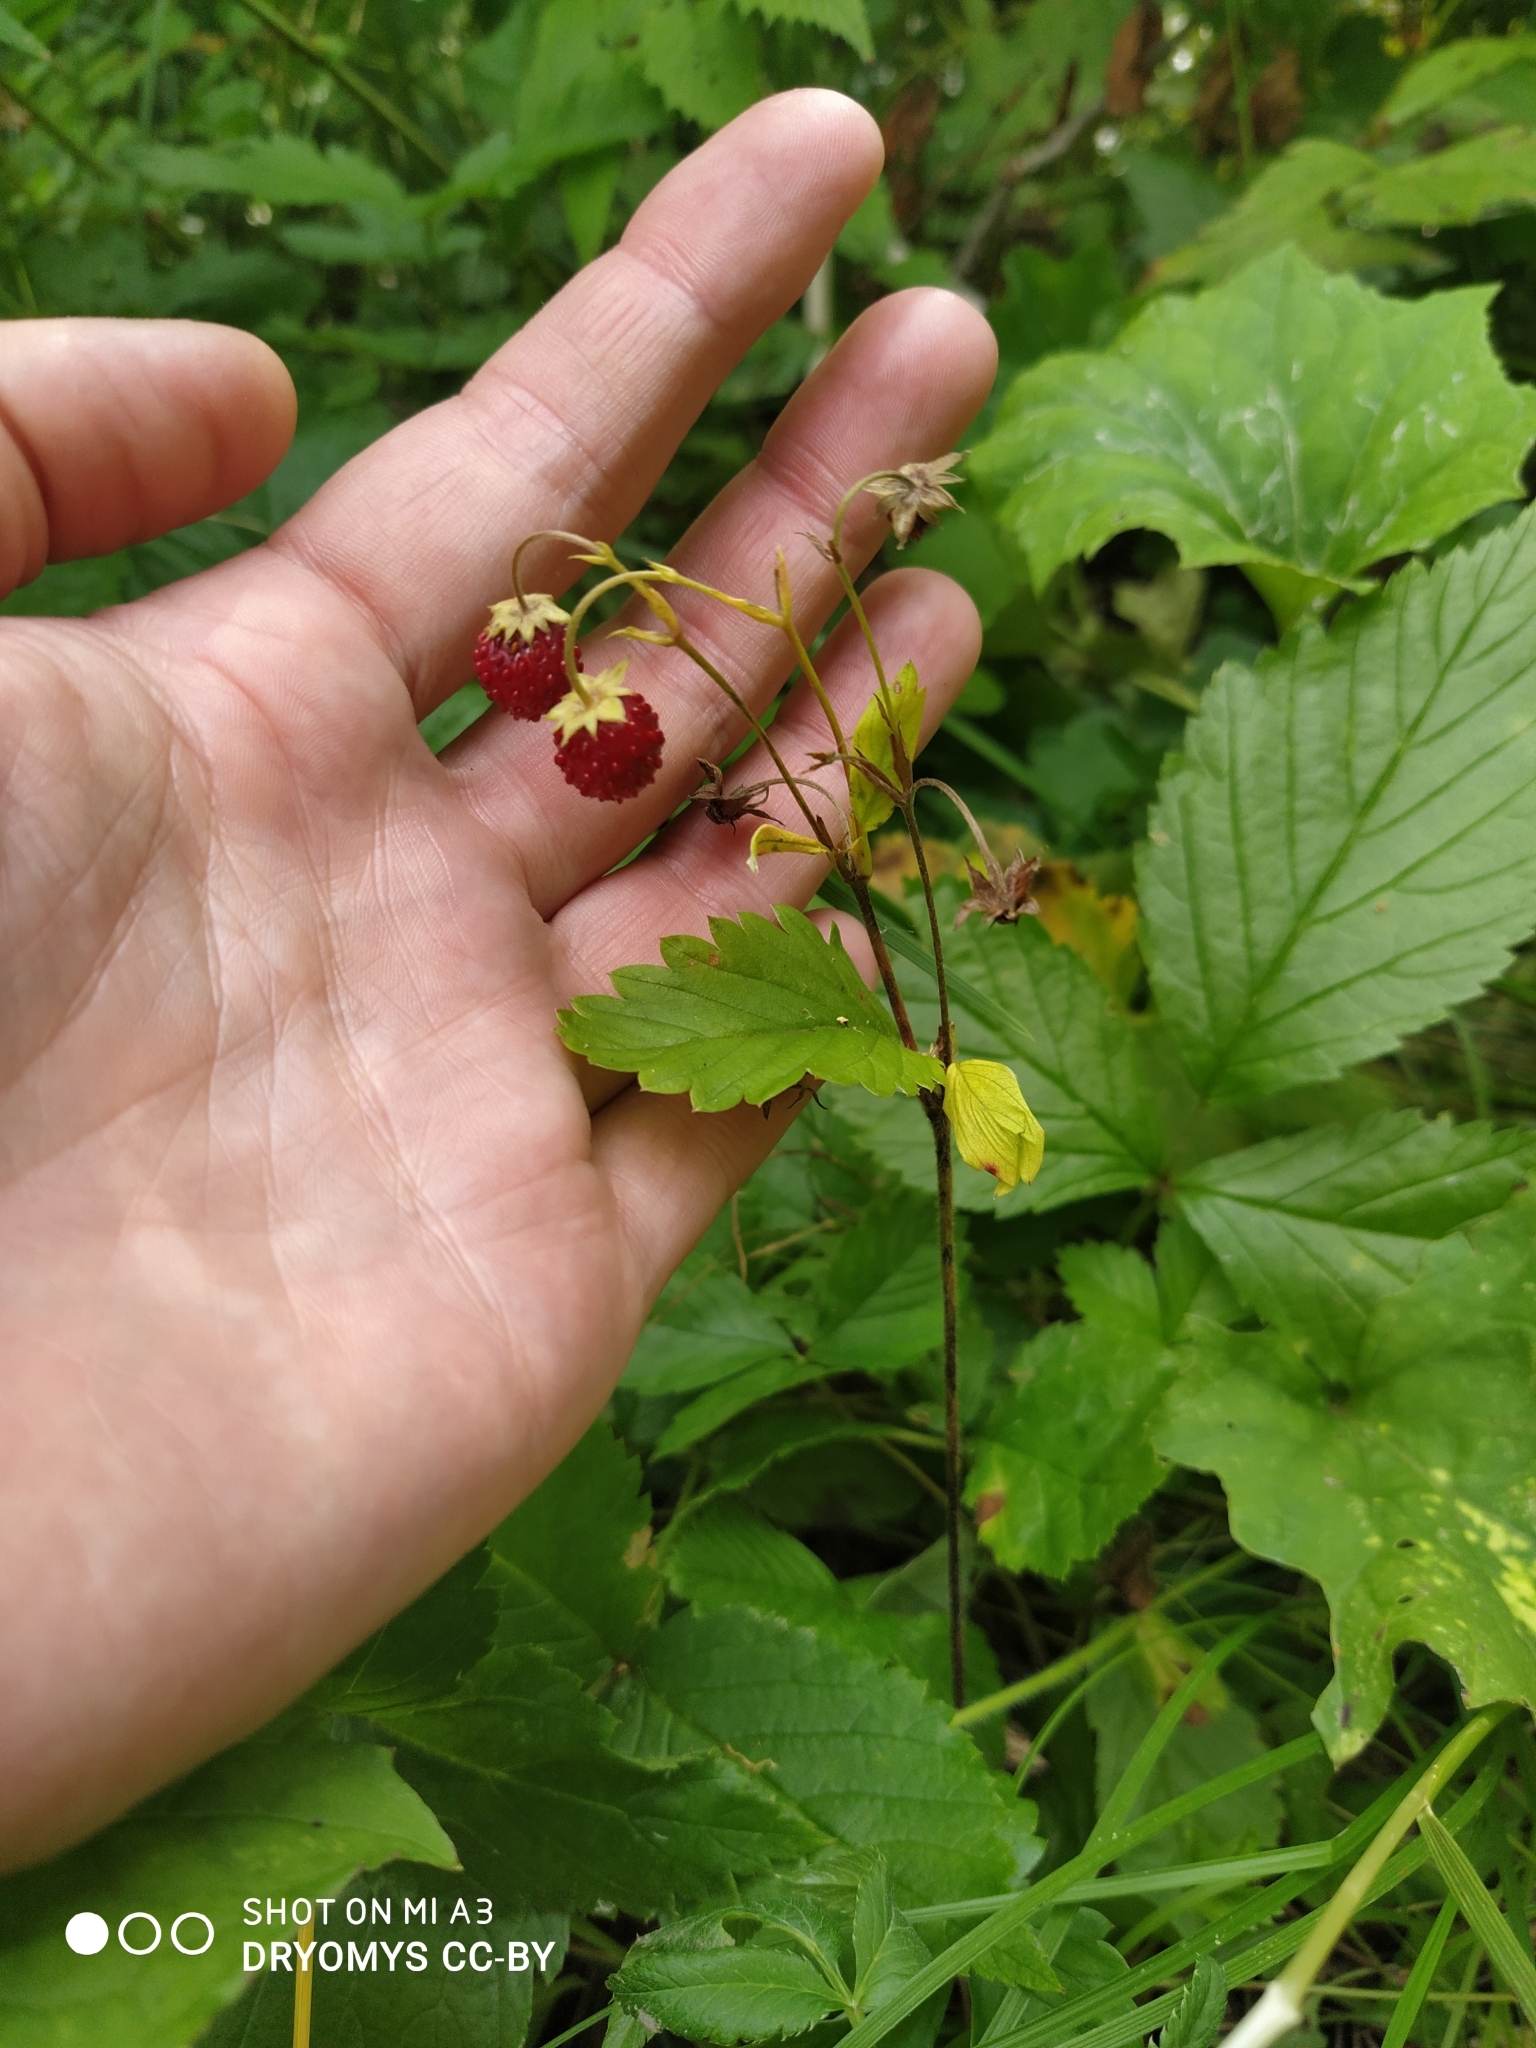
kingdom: Plantae
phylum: Tracheophyta
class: Magnoliopsida
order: Rosales
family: Rosaceae
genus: Fragaria
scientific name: Fragaria vesca
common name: Wild strawberry
